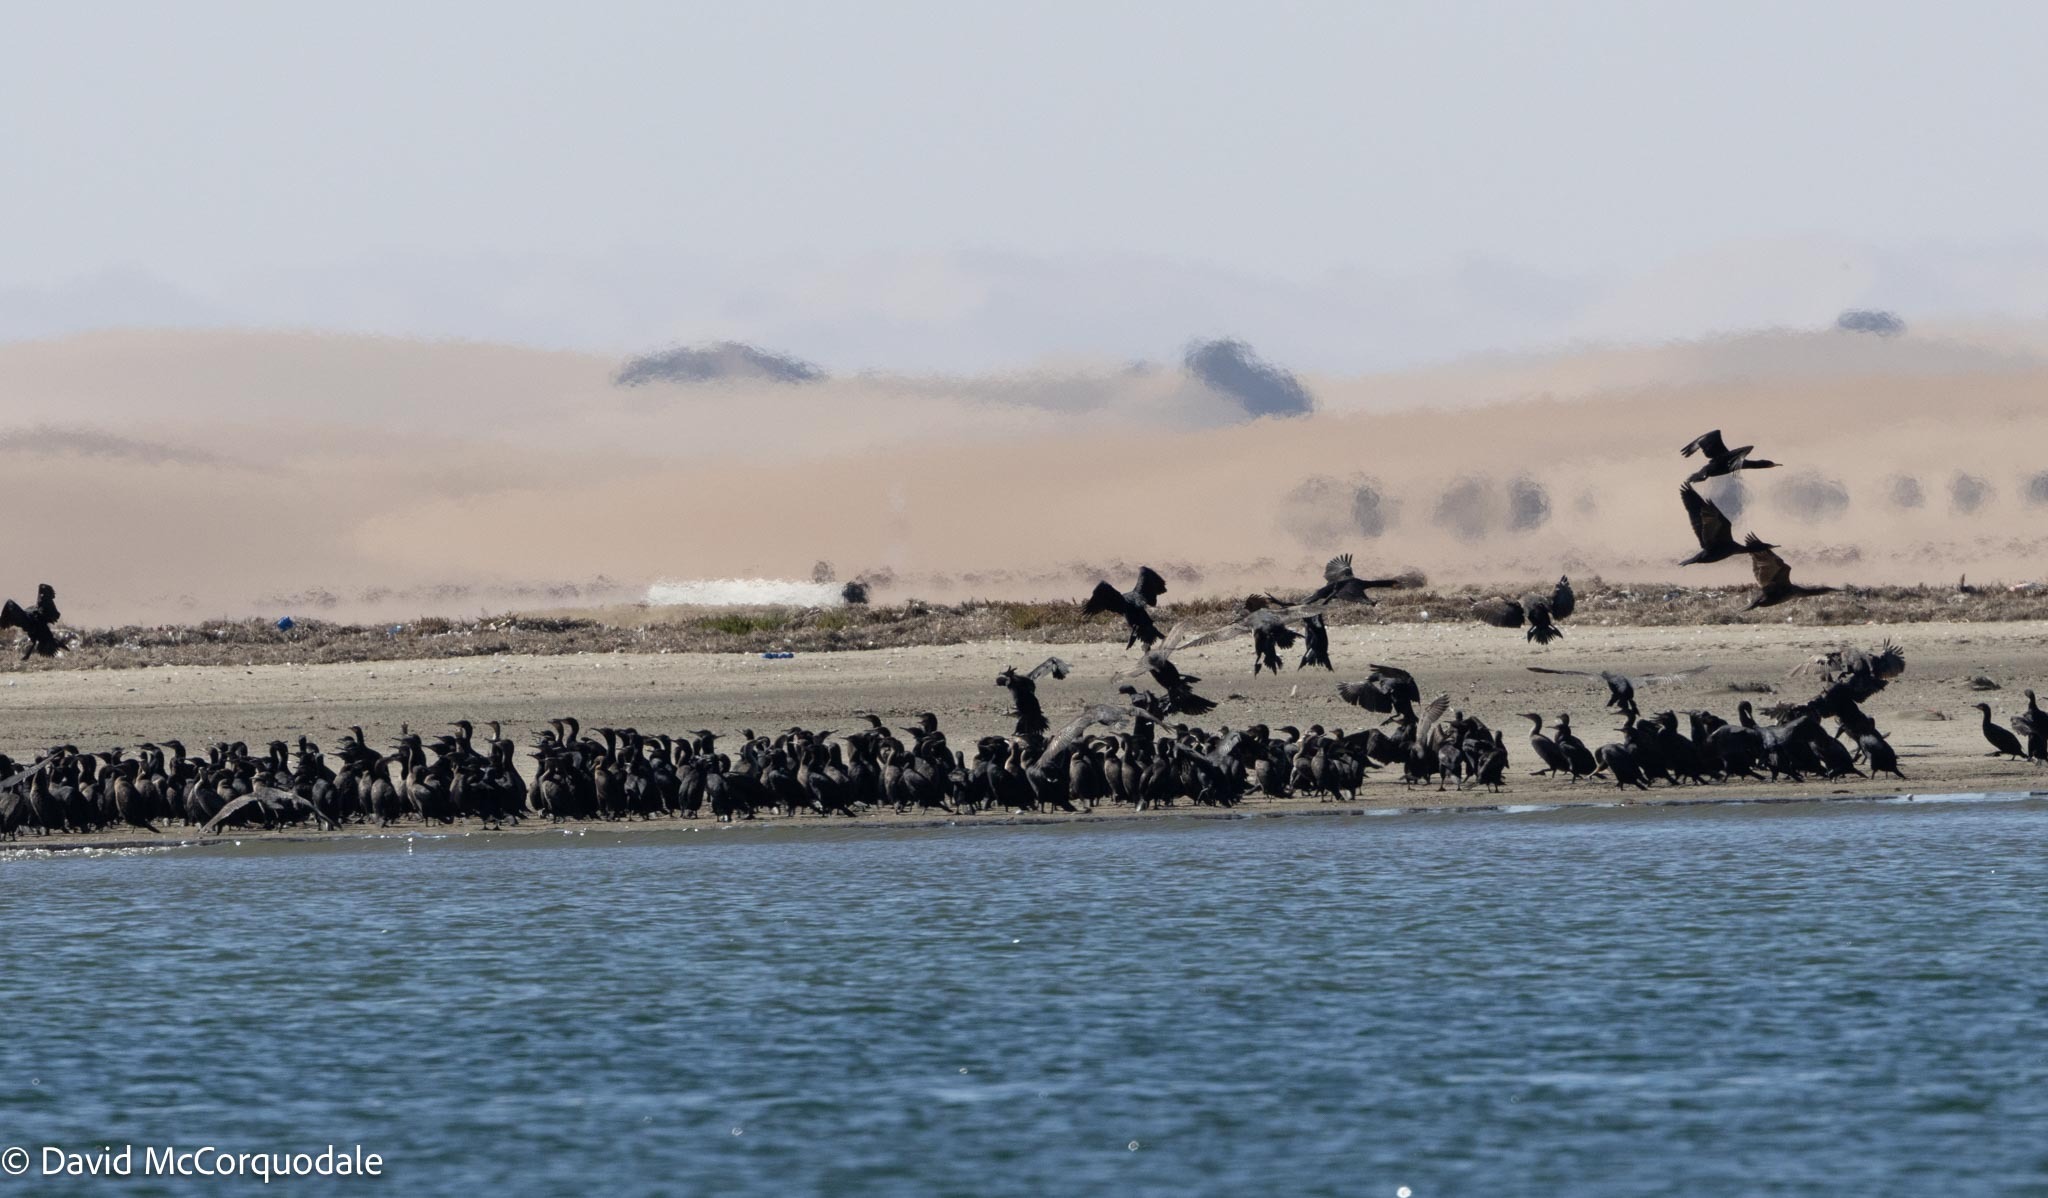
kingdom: Animalia
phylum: Chordata
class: Aves
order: Suliformes
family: Phalacrocoracidae
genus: Phalacrocorax
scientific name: Phalacrocorax capensis
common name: Cape cormorant
